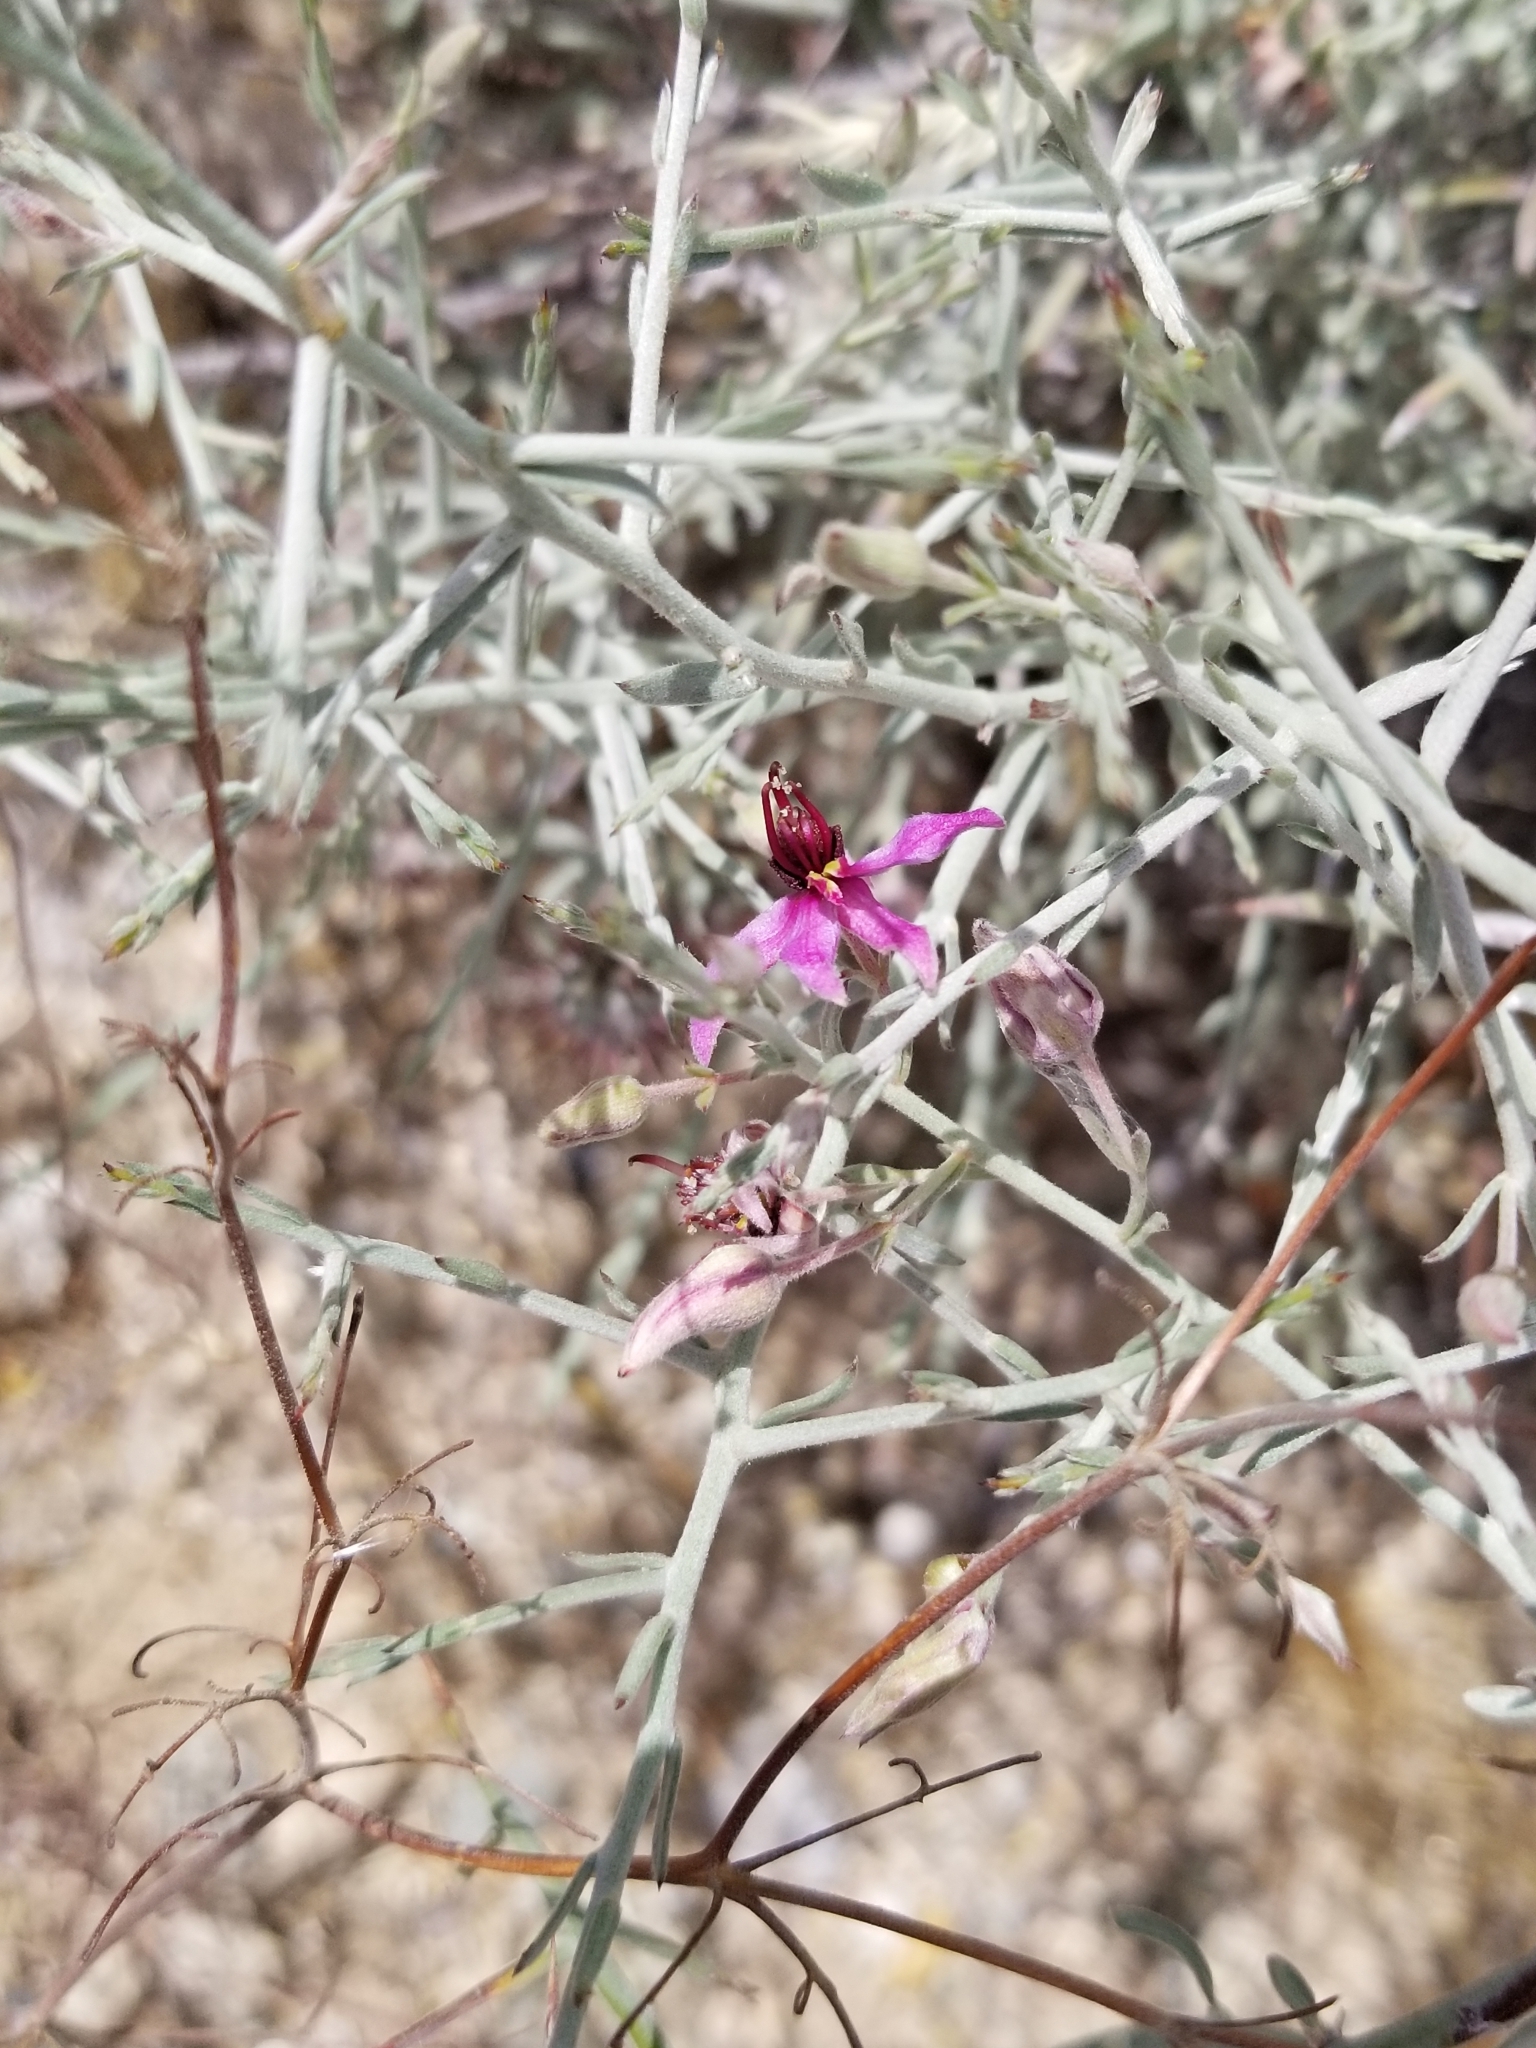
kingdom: Plantae
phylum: Tracheophyta
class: Magnoliopsida
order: Zygophyllales
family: Krameriaceae
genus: Krameria
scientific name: Krameria bicolor
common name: White ratany
